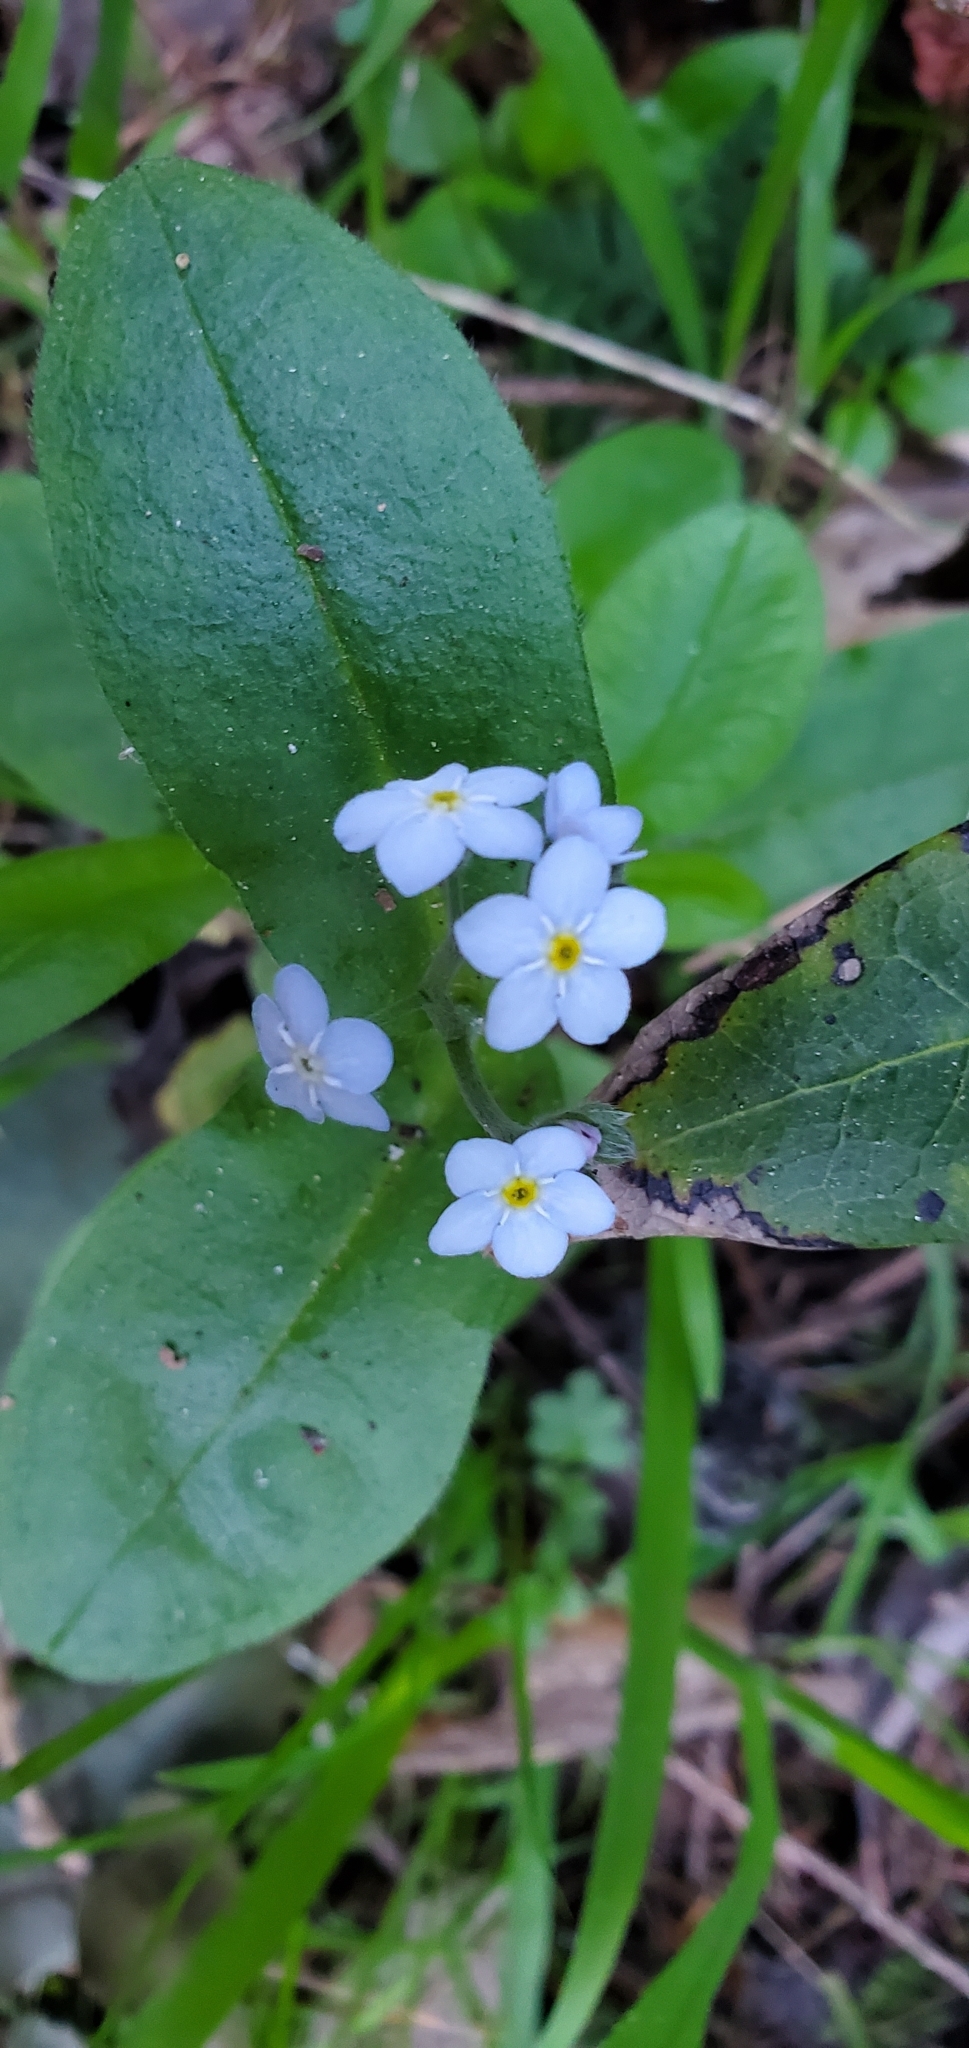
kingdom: Plantae
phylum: Tracheophyta
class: Magnoliopsida
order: Boraginales
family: Boraginaceae
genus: Myosotis
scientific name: Myosotis latifolia
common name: Broadleaf forget-me-not
